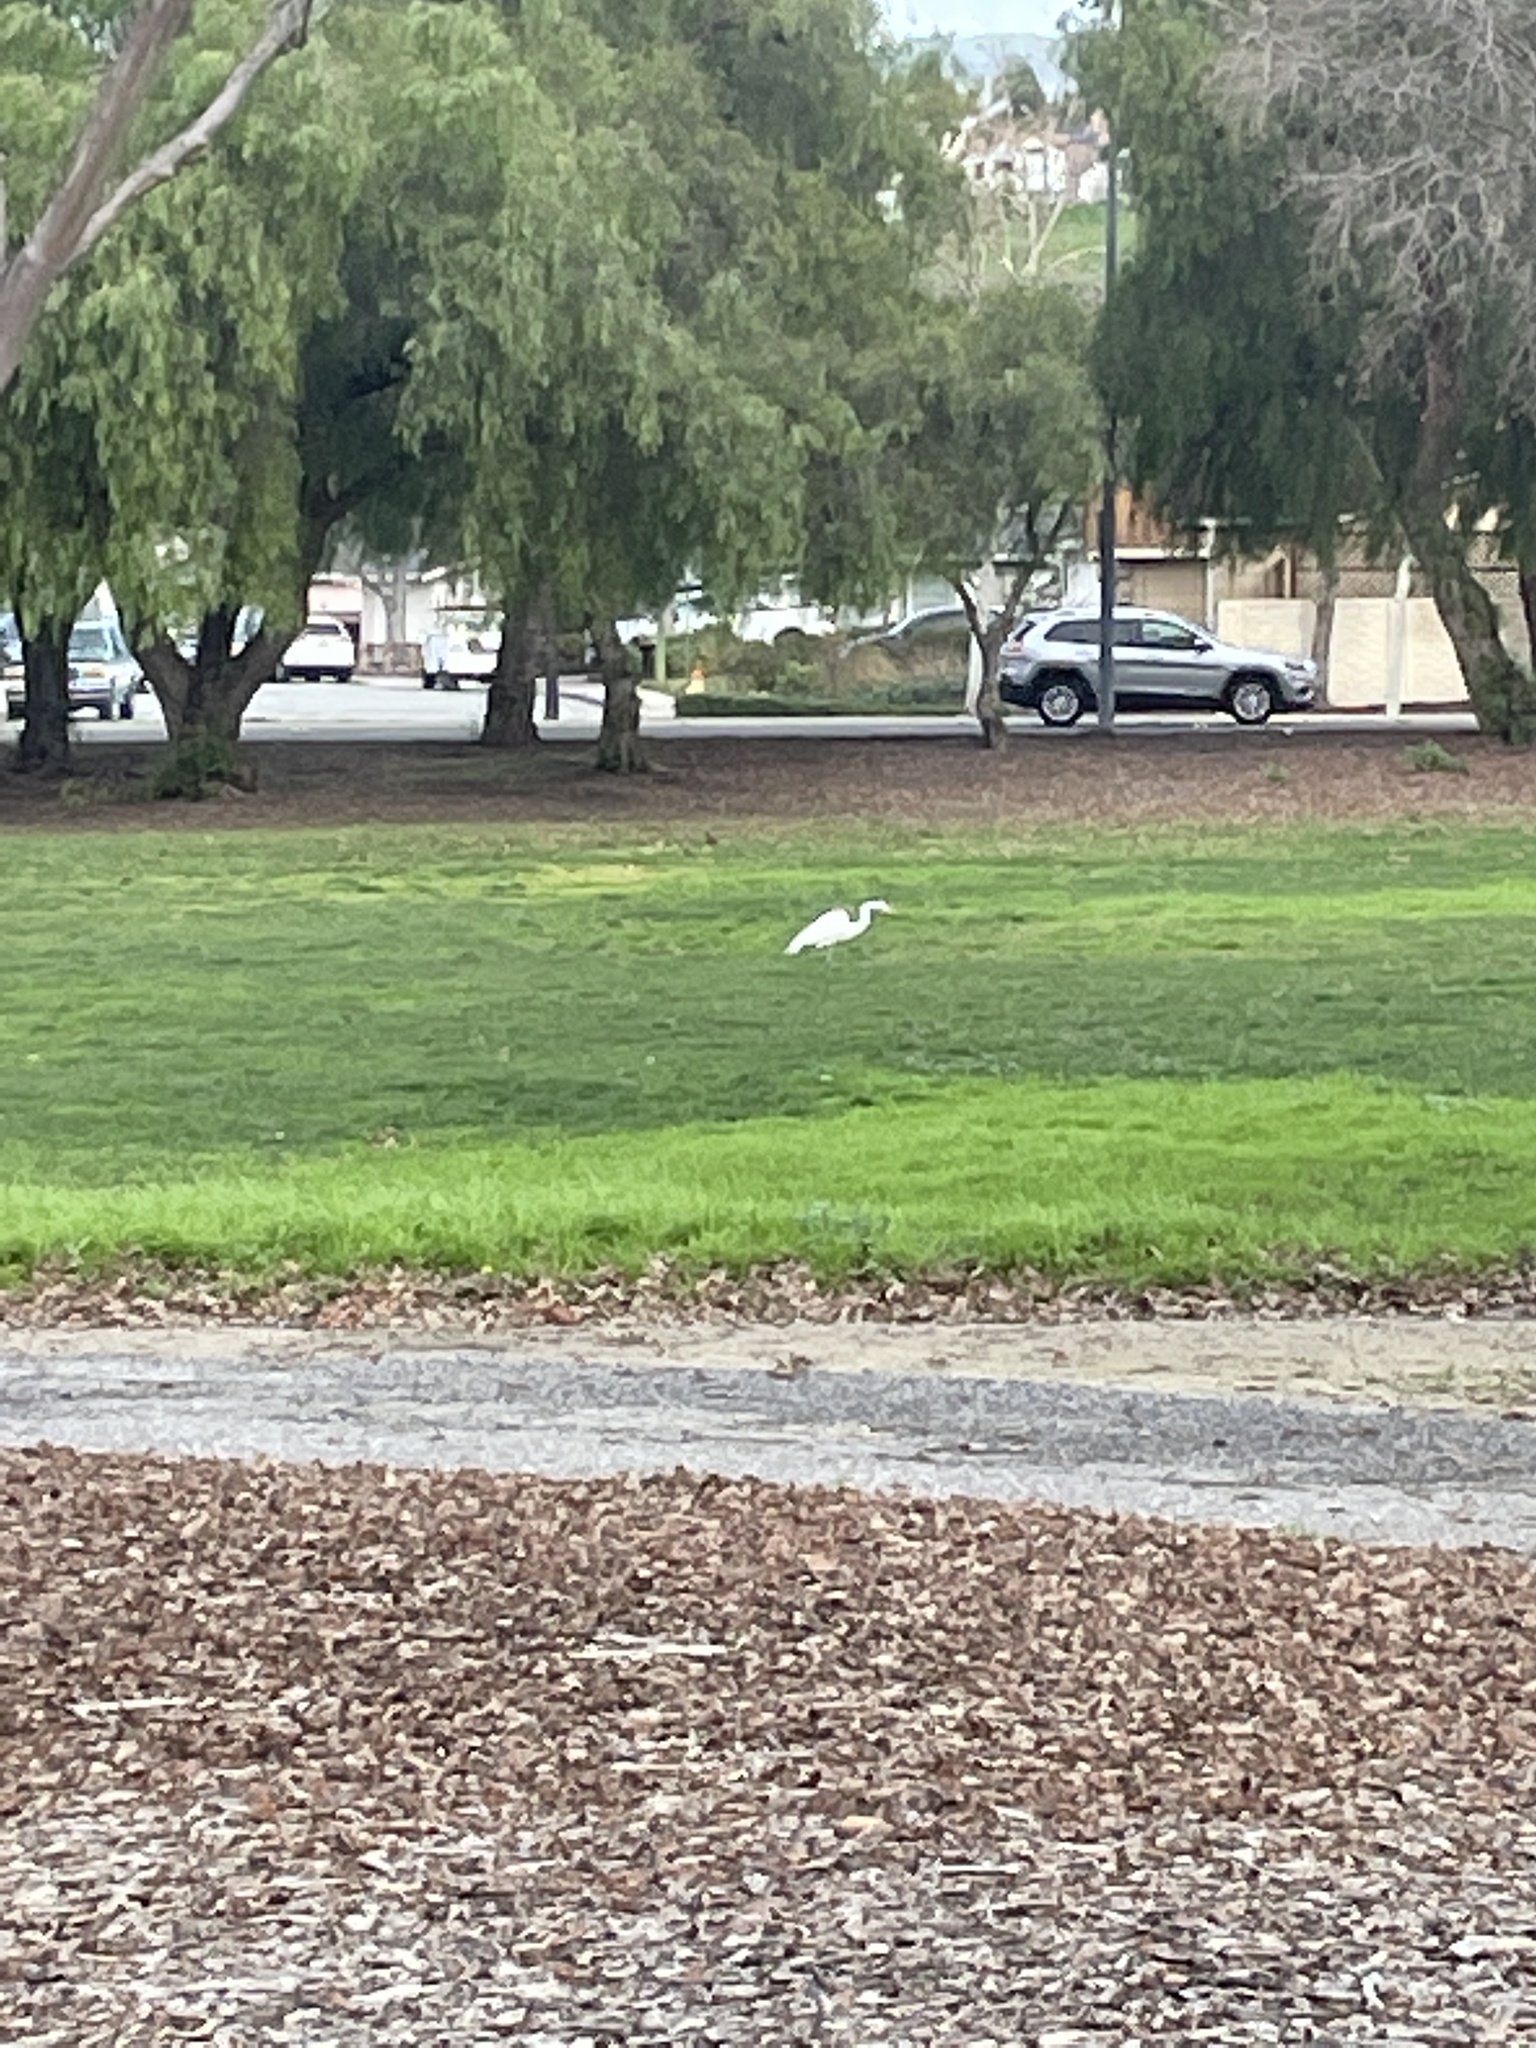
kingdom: Animalia
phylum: Chordata
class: Aves
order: Pelecaniformes
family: Ardeidae
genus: Ardea
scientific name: Ardea alba
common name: Great egret
